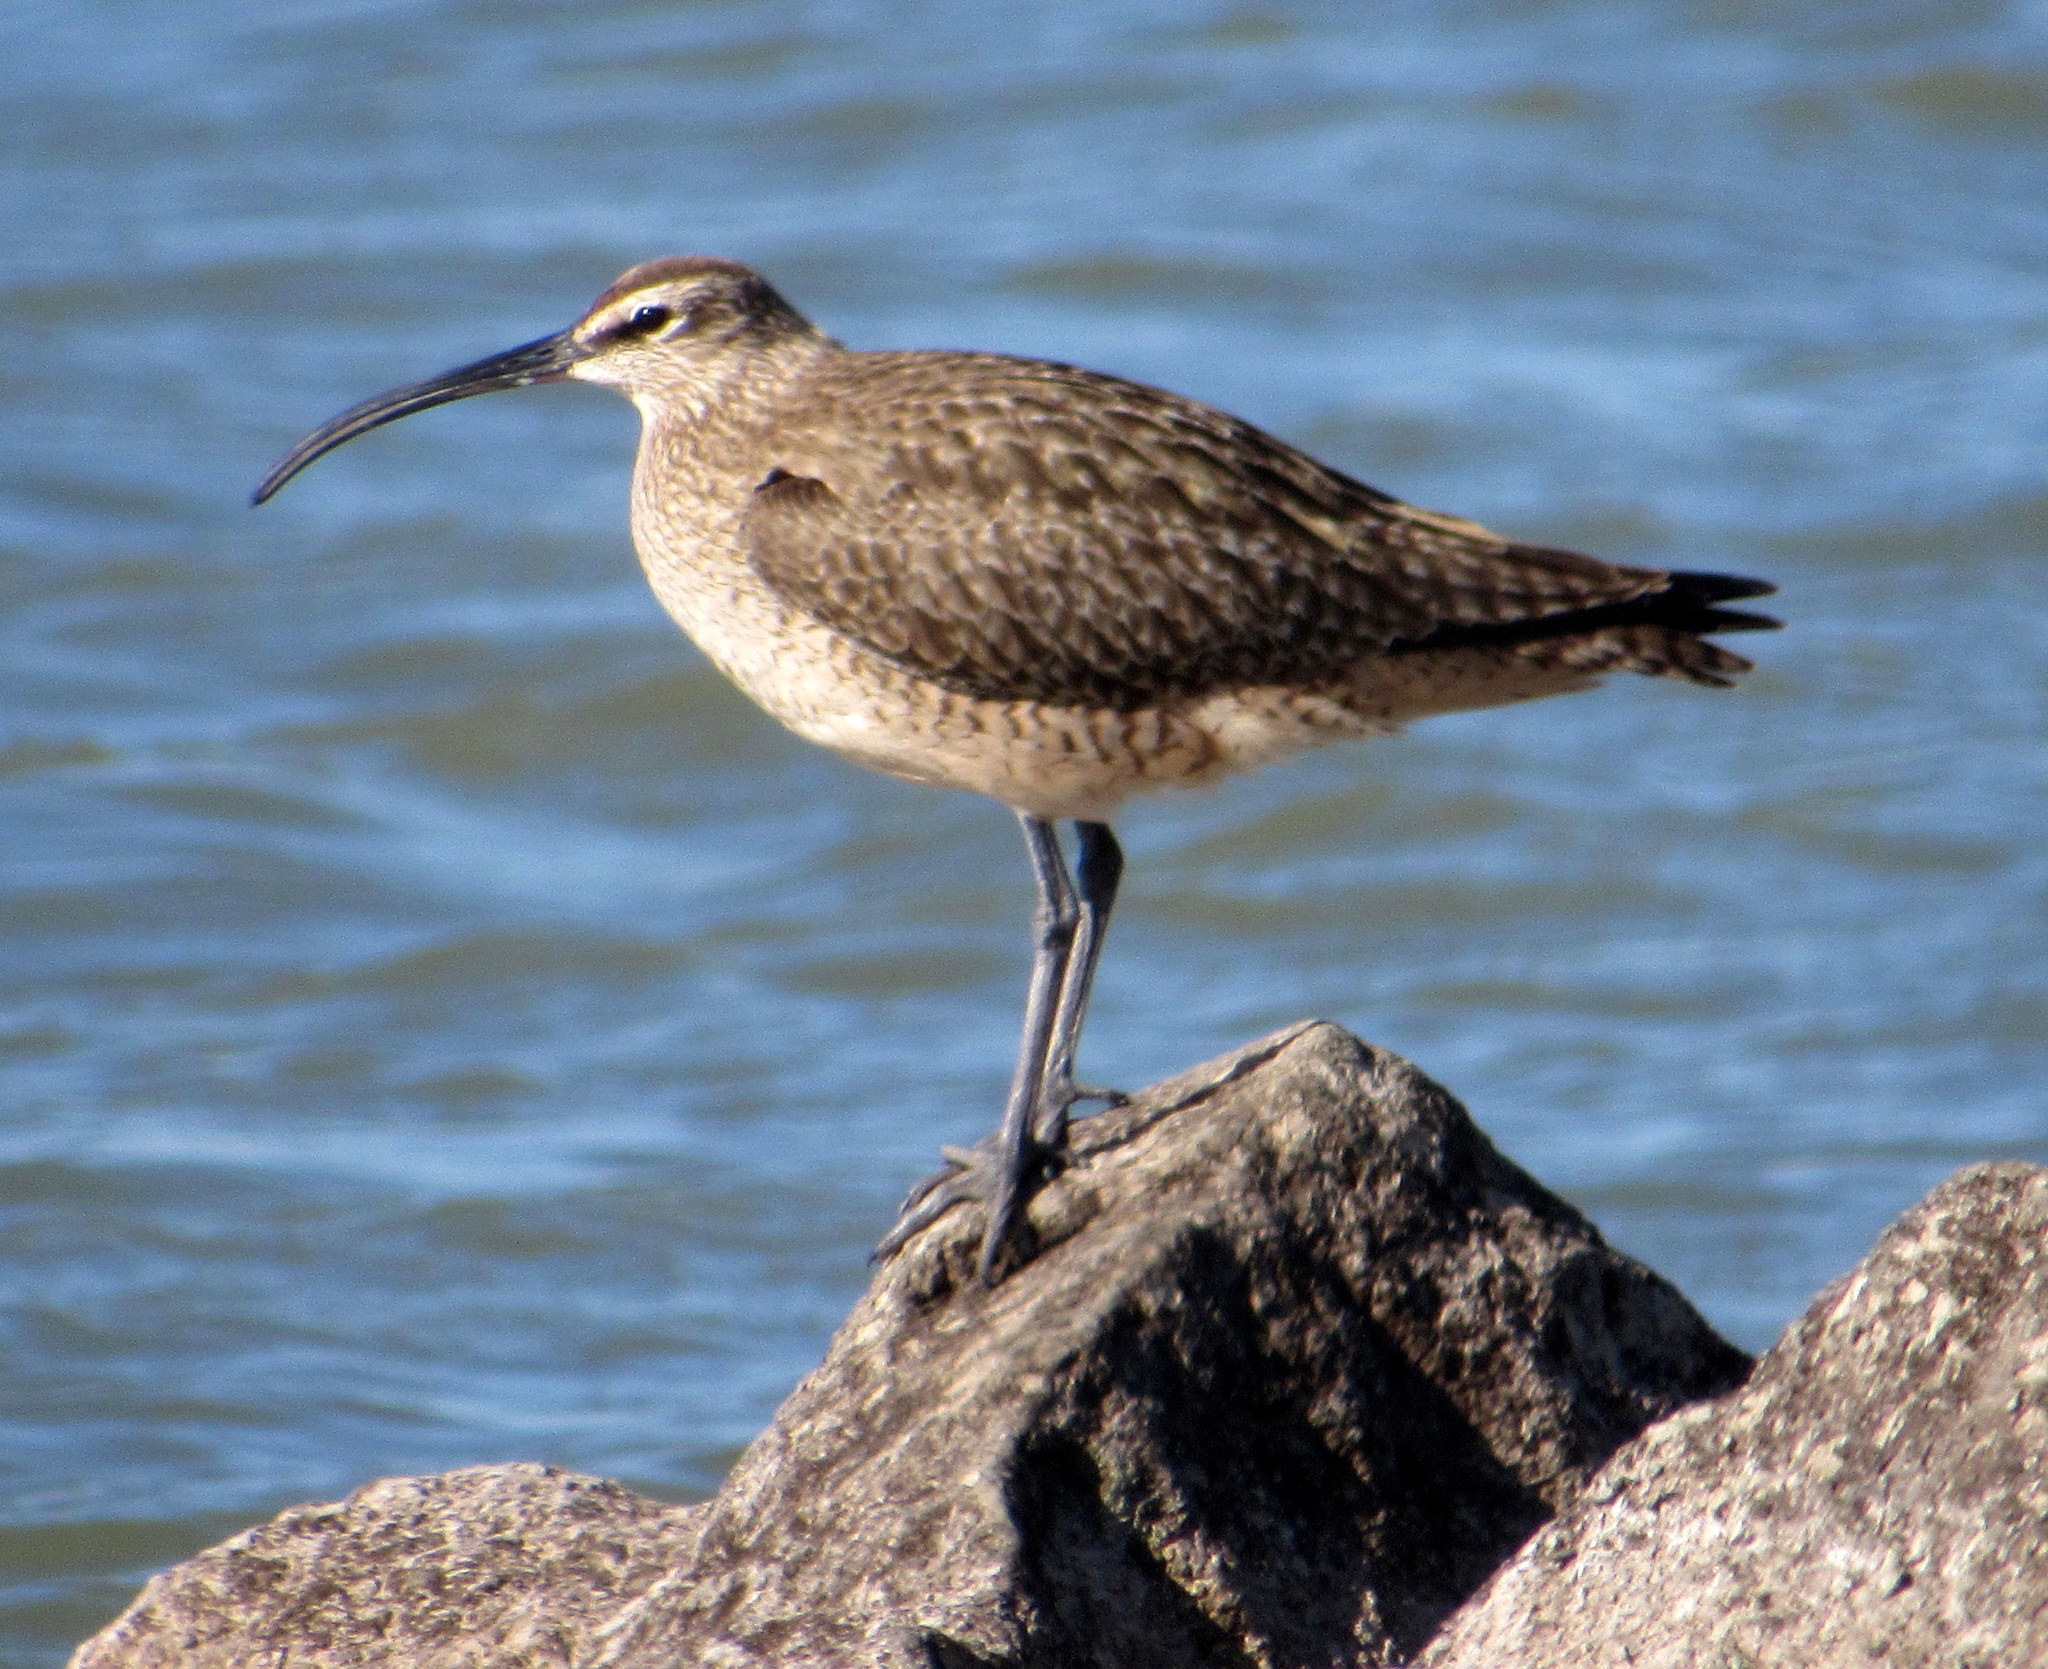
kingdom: Animalia
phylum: Chordata
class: Aves
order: Charadriiformes
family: Scolopacidae
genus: Numenius
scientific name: Numenius phaeopus
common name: Whimbrel
